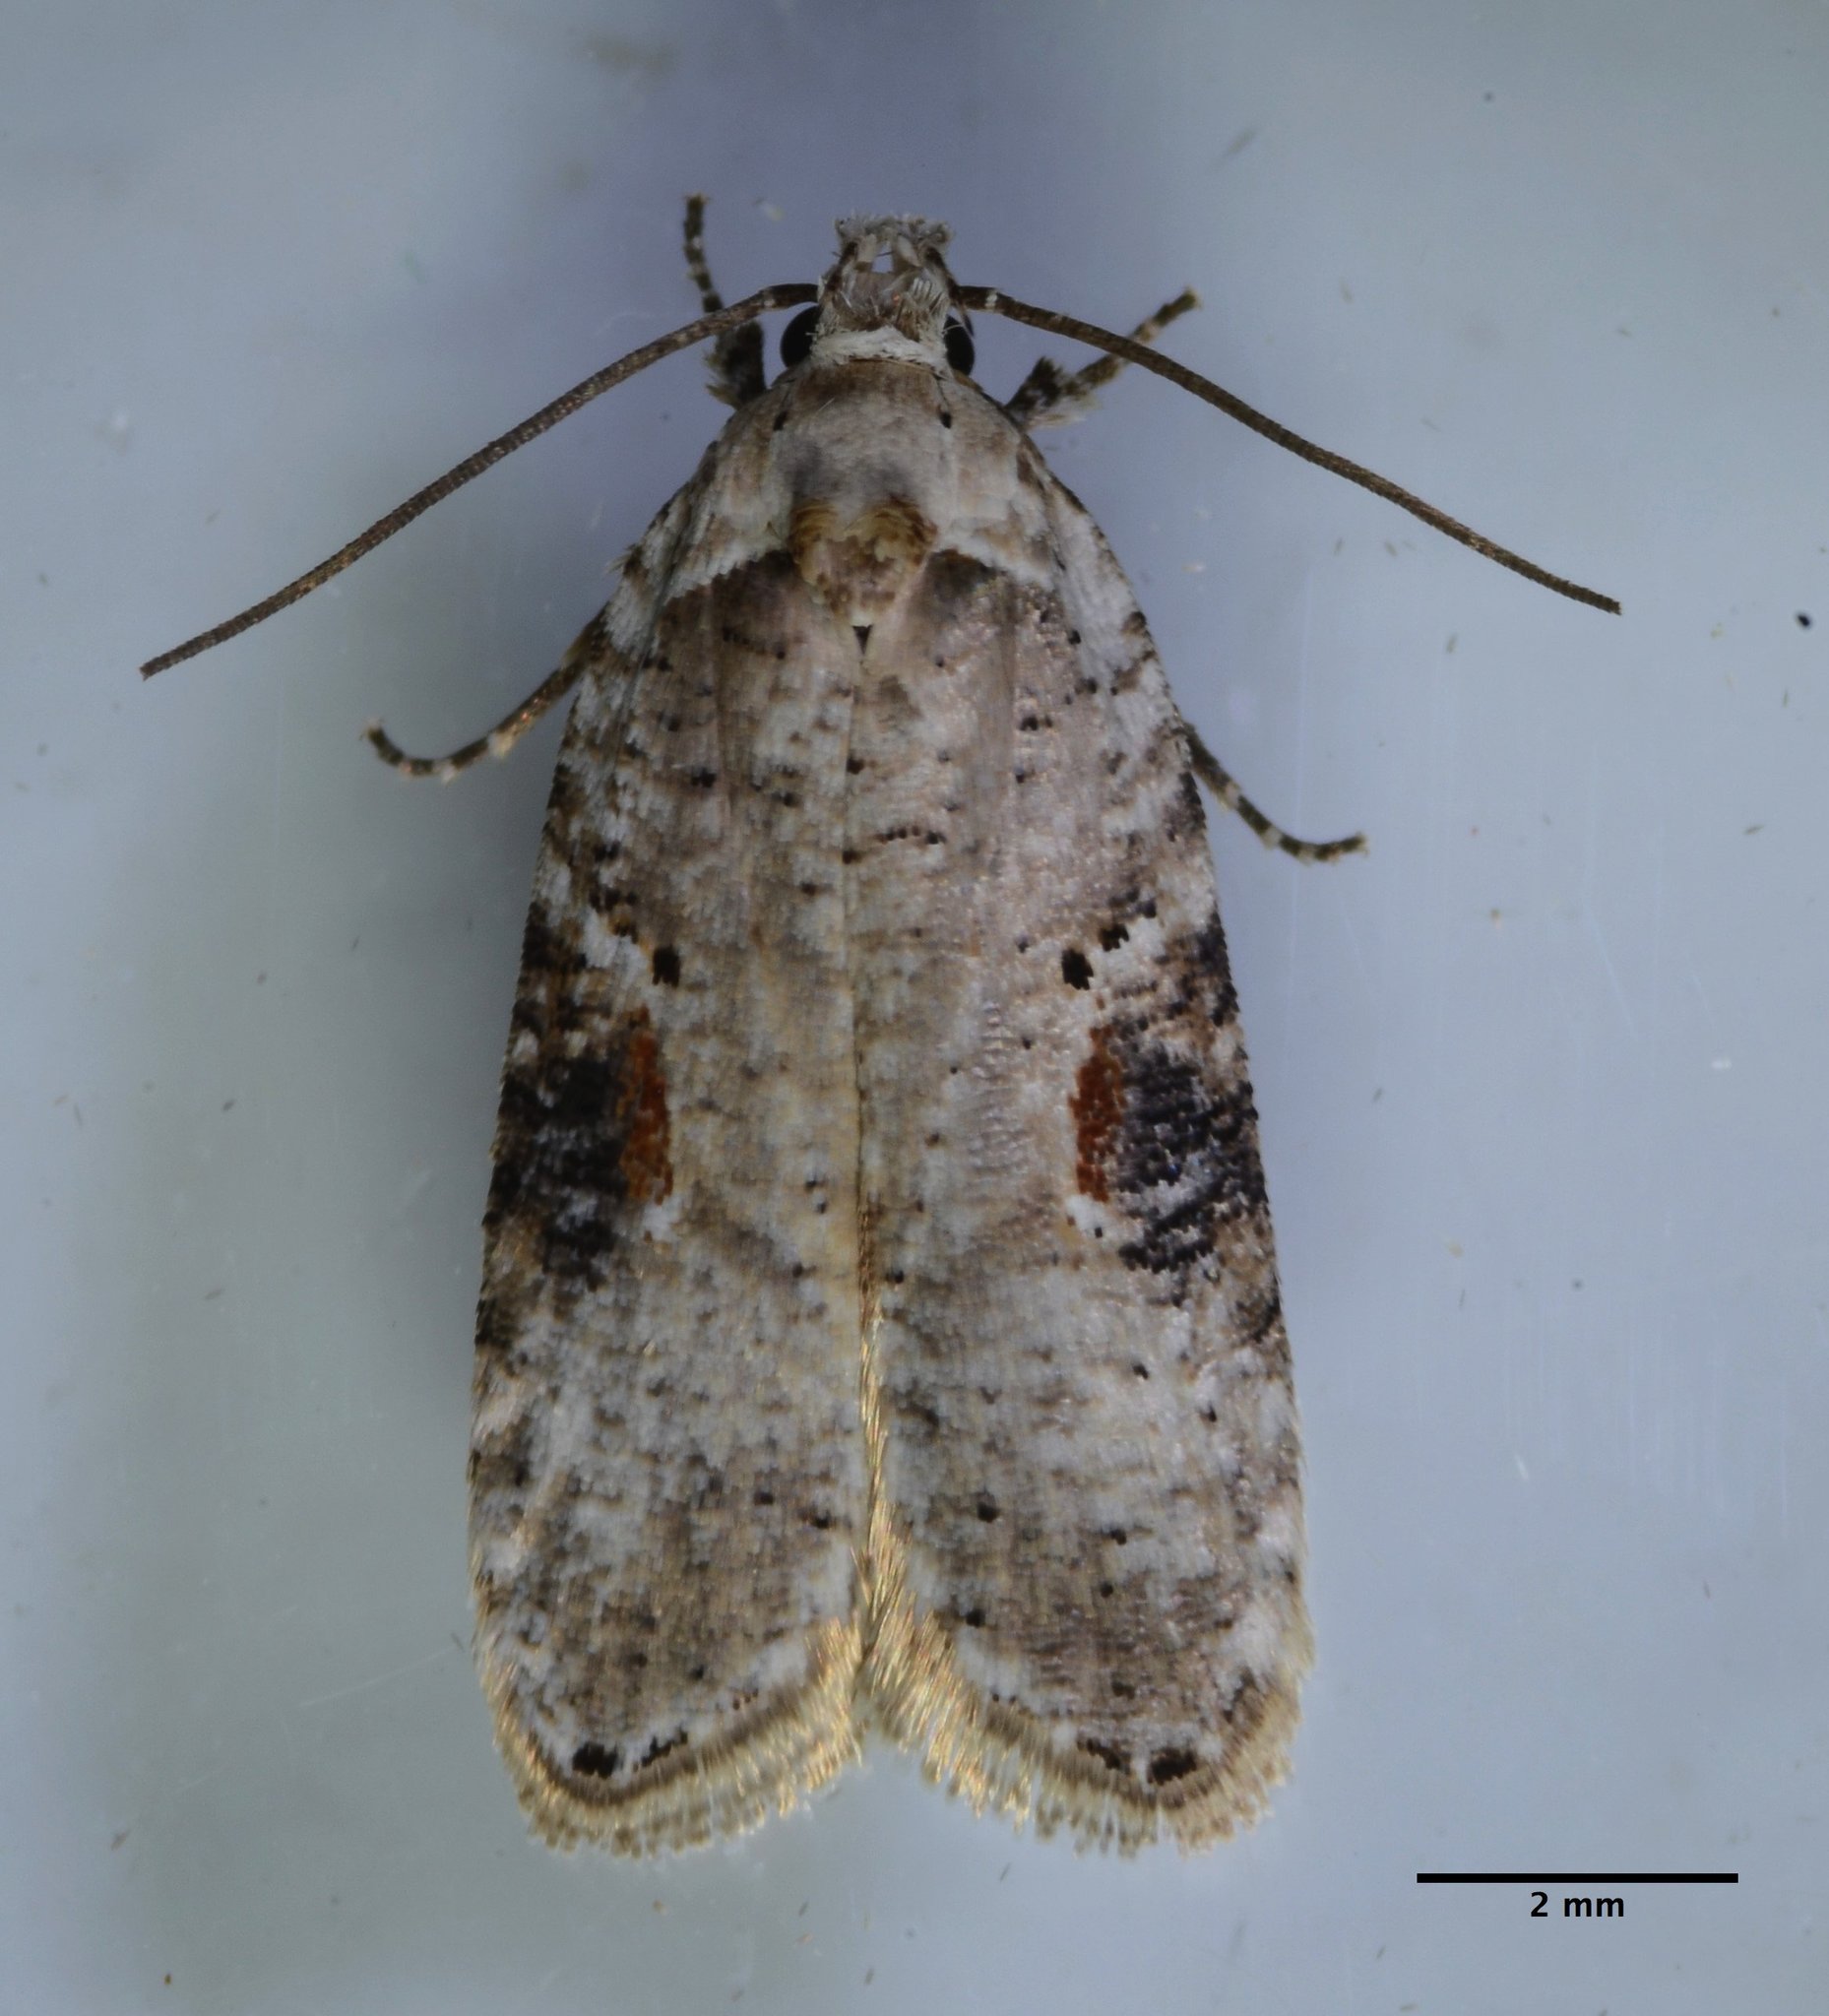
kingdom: Animalia
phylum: Arthropoda
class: Insecta
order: Lepidoptera
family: Depressariidae
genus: Agonopterix
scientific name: Agonopterix alstroemeriana
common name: Moth
